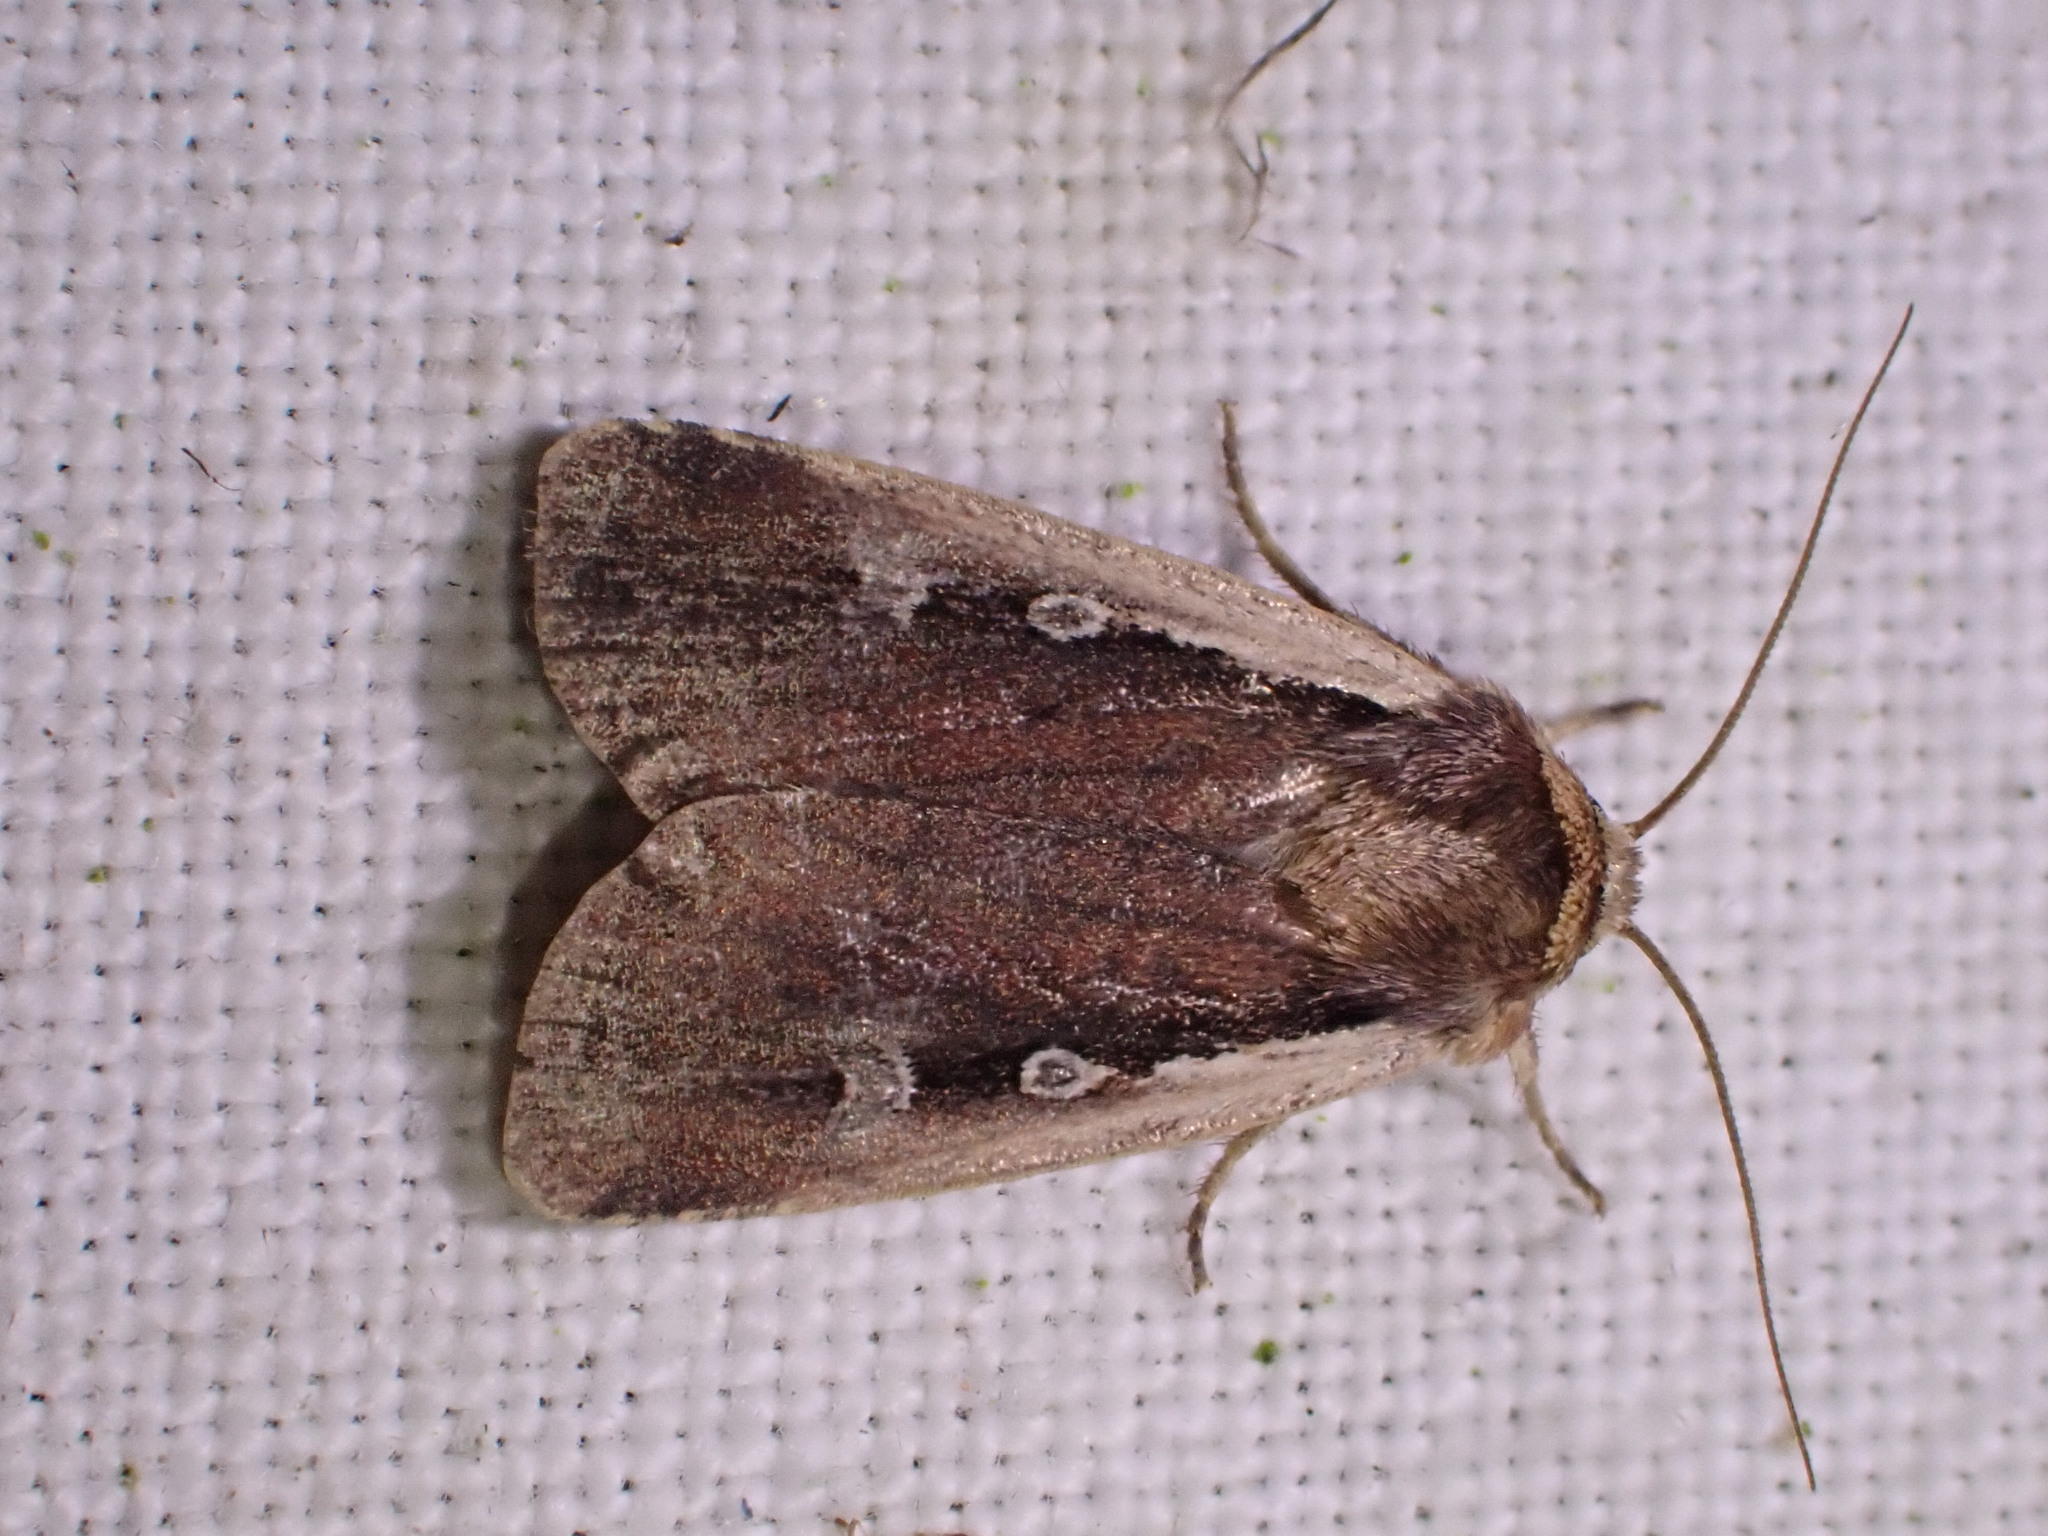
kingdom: Animalia
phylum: Arthropoda
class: Insecta
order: Lepidoptera
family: Noctuidae
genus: Ochropleura
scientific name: Ochropleura plecta
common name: Flame shoulder
